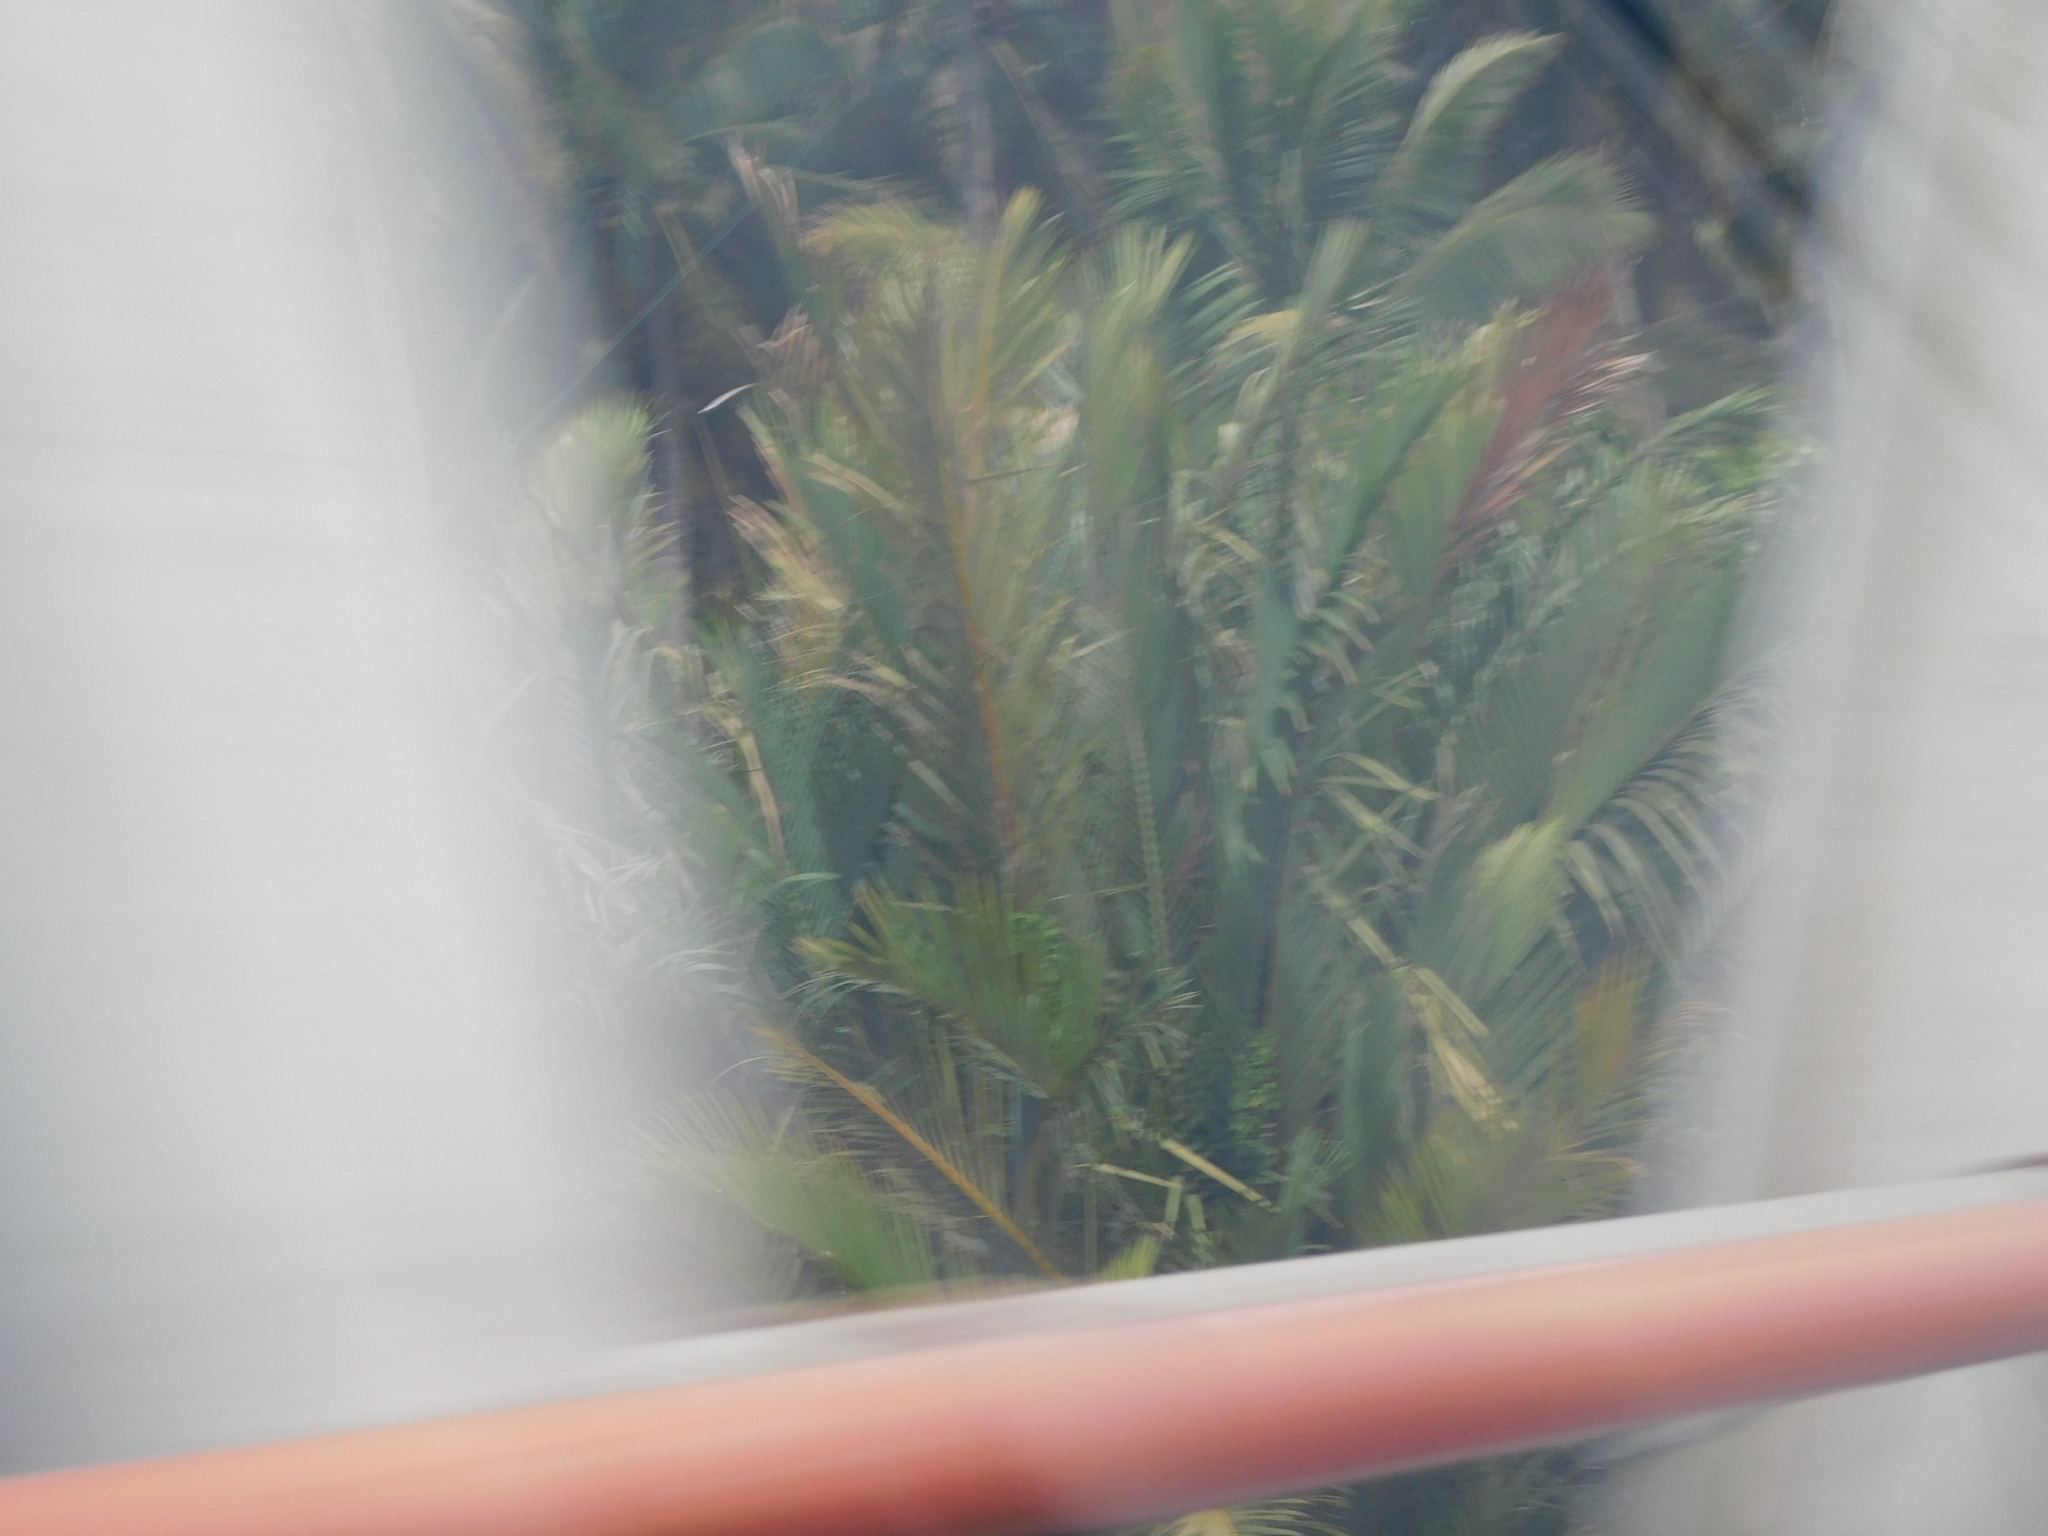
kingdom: Plantae
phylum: Tracheophyta
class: Liliopsida
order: Arecales
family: Arecaceae
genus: Nypa
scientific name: Nypa fruticans
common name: Mangrove palm
